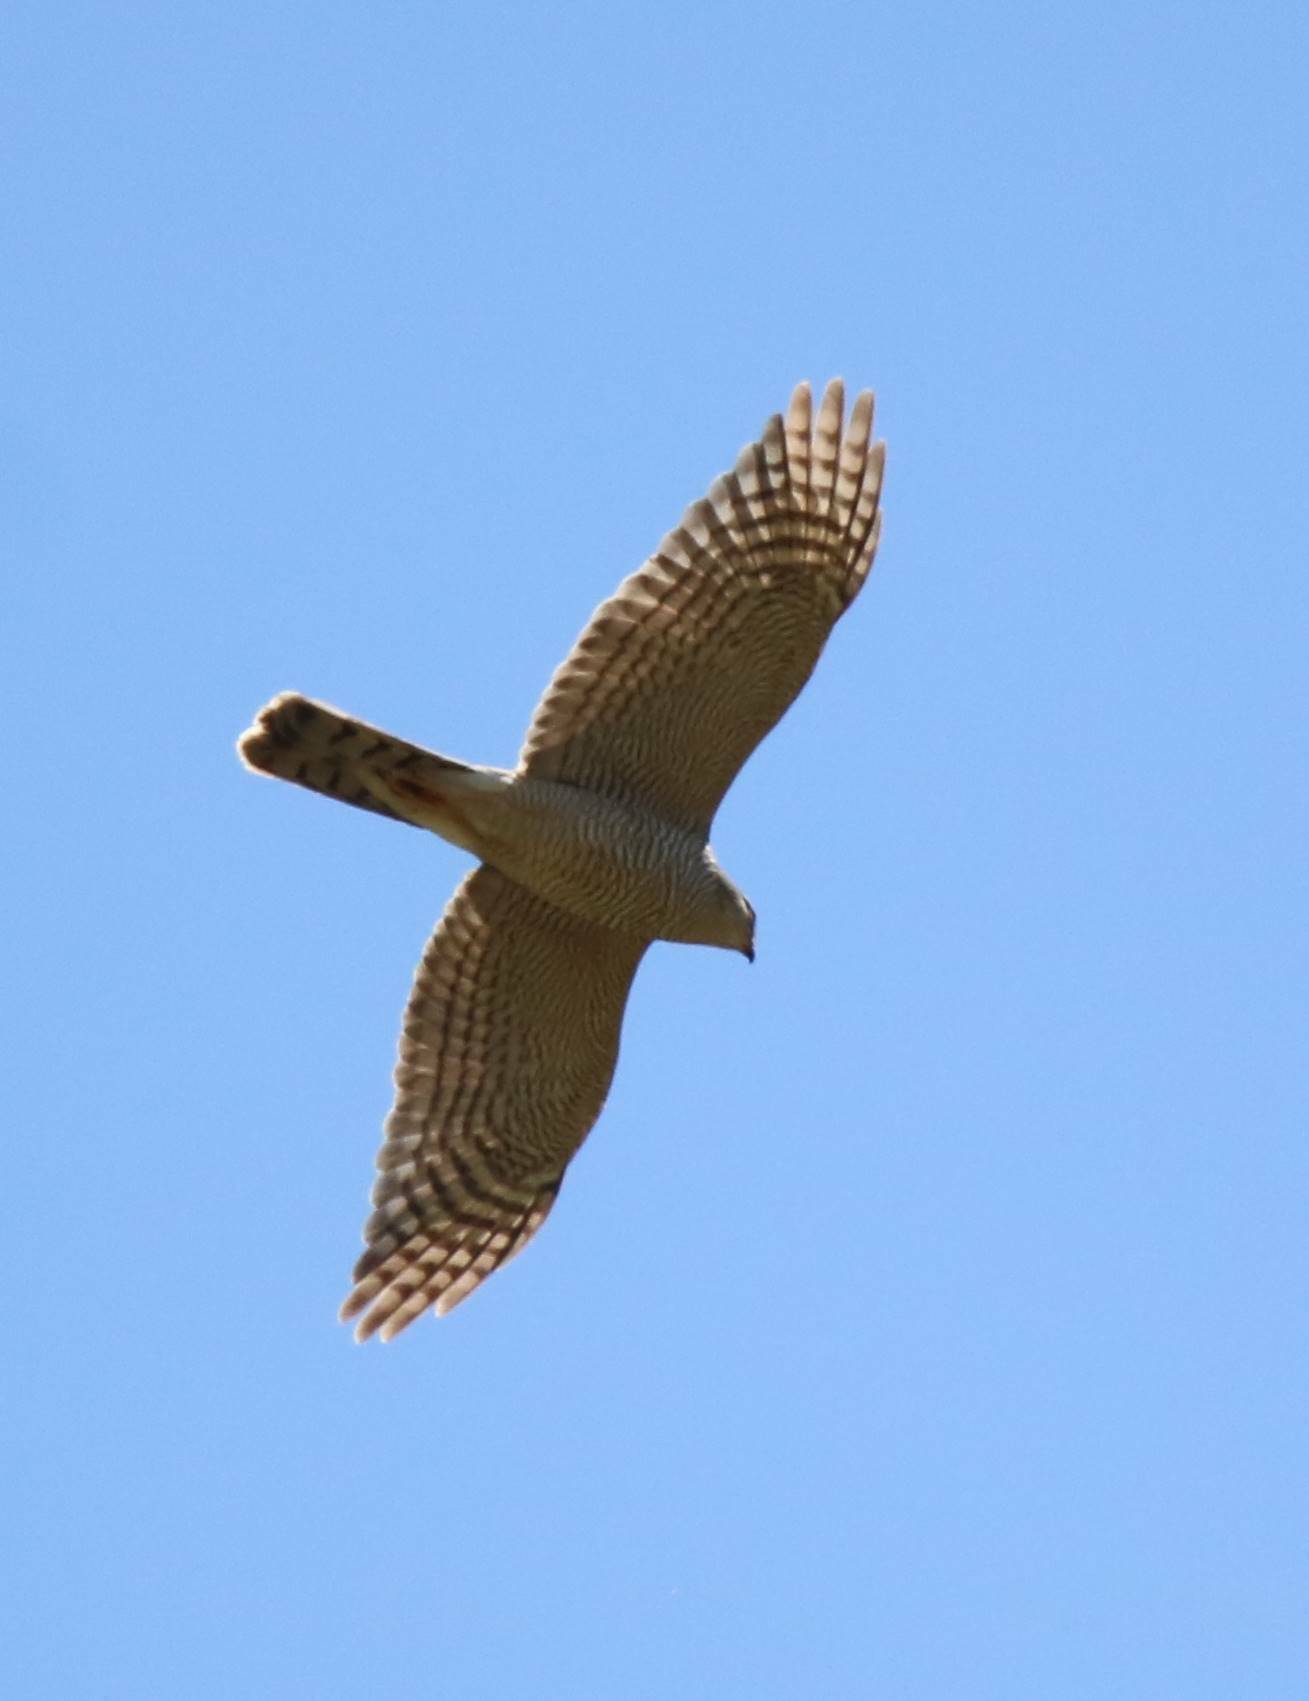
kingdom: Animalia
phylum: Chordata
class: Aves
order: Accipitriformes
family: Accipitridae
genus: Accipiter
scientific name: Accipiter nisus
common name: Eurasian sparrowhawk
